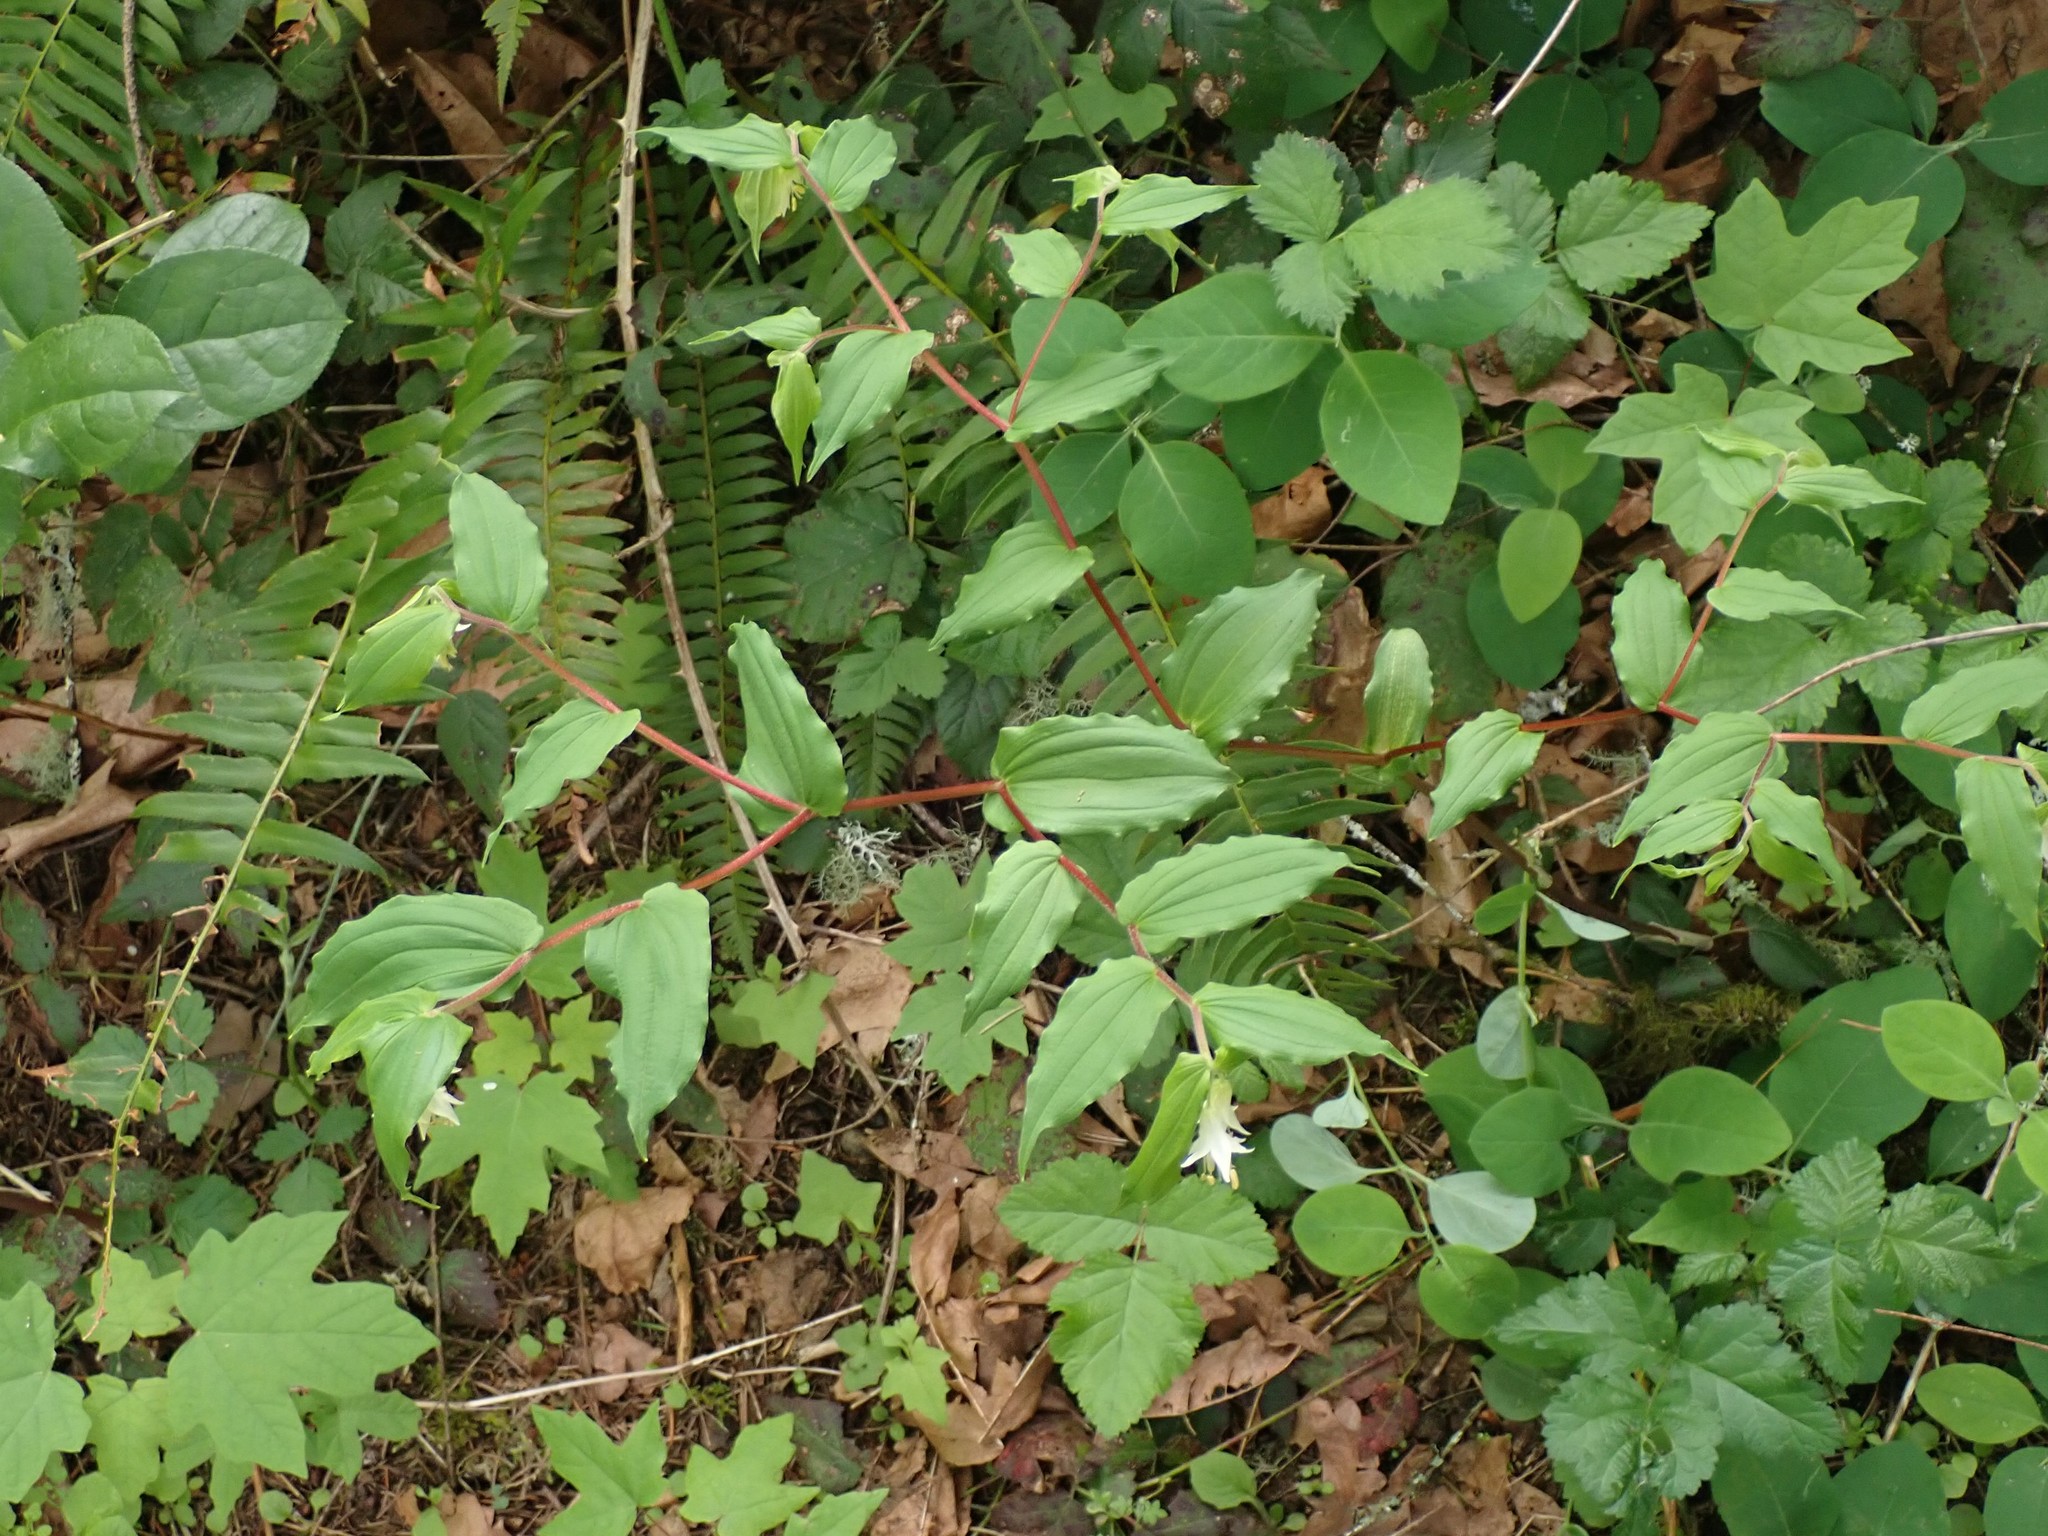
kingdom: Plantae
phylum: Tracheophyta
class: Liliopsida
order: Liliales
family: Liliaceae
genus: Prosartes
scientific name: Prosartes hookeri
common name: Fairy-bells
